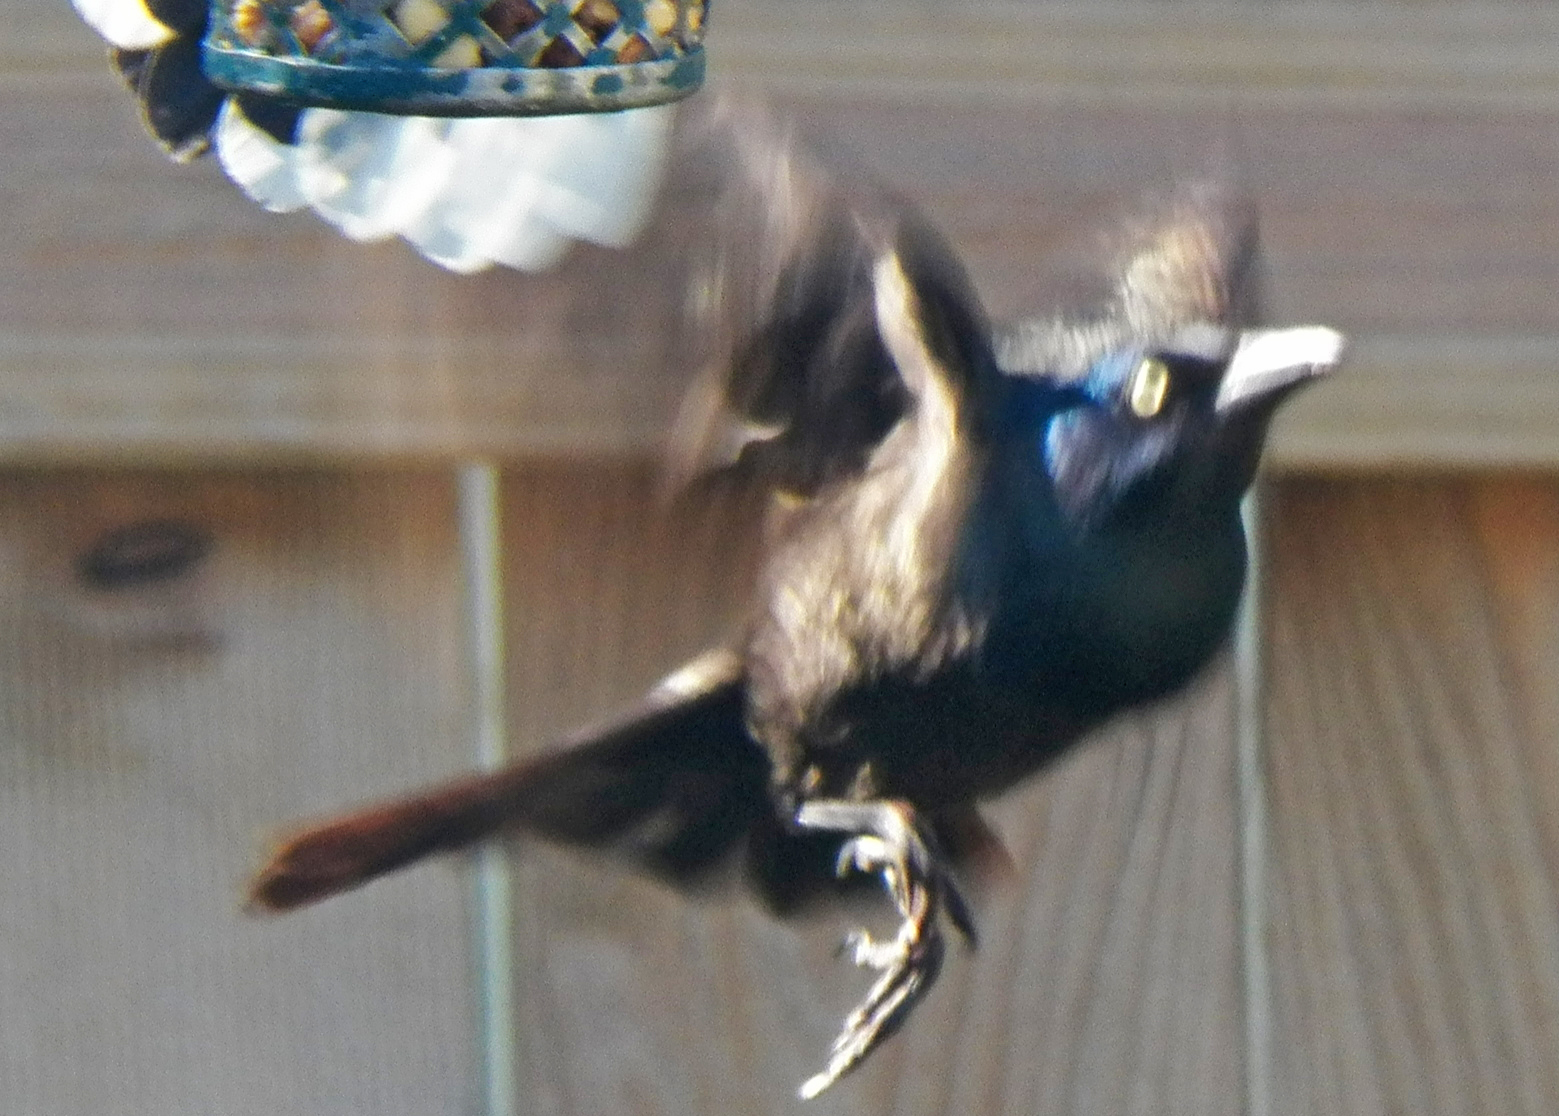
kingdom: Animalia
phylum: Chordata
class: Aves
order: Passeriformes
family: Icteridae
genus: Quiscalus
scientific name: Quiscalus quiscula
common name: Common grackle
